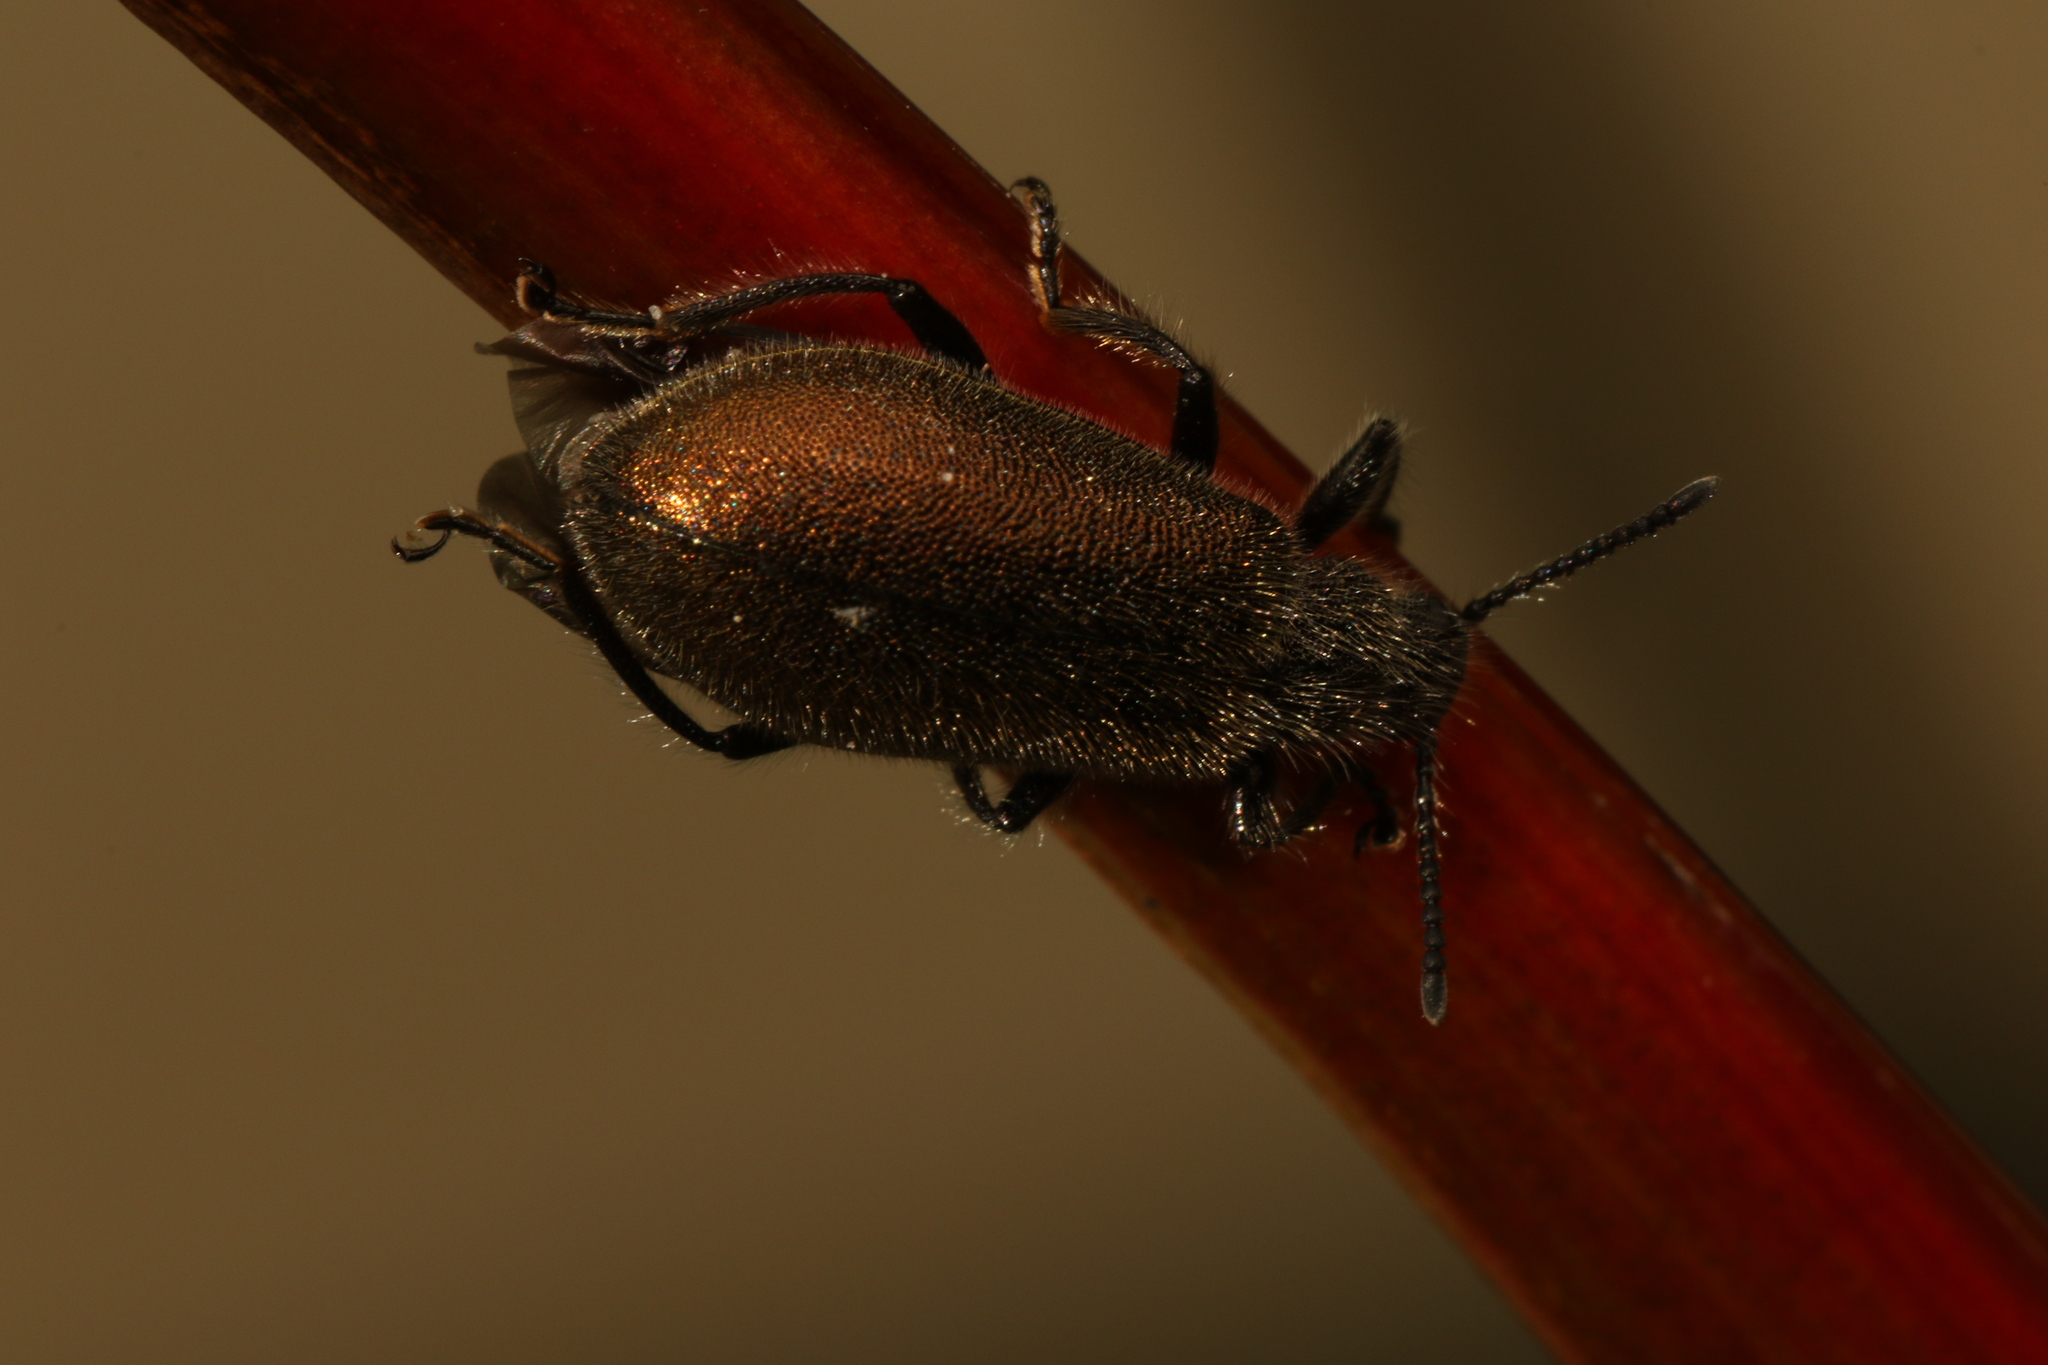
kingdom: Animalia
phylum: Arthropoda
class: Insecta
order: Coleoptera
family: Tenebrionidae
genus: Lagria
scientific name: Lagria villosa
